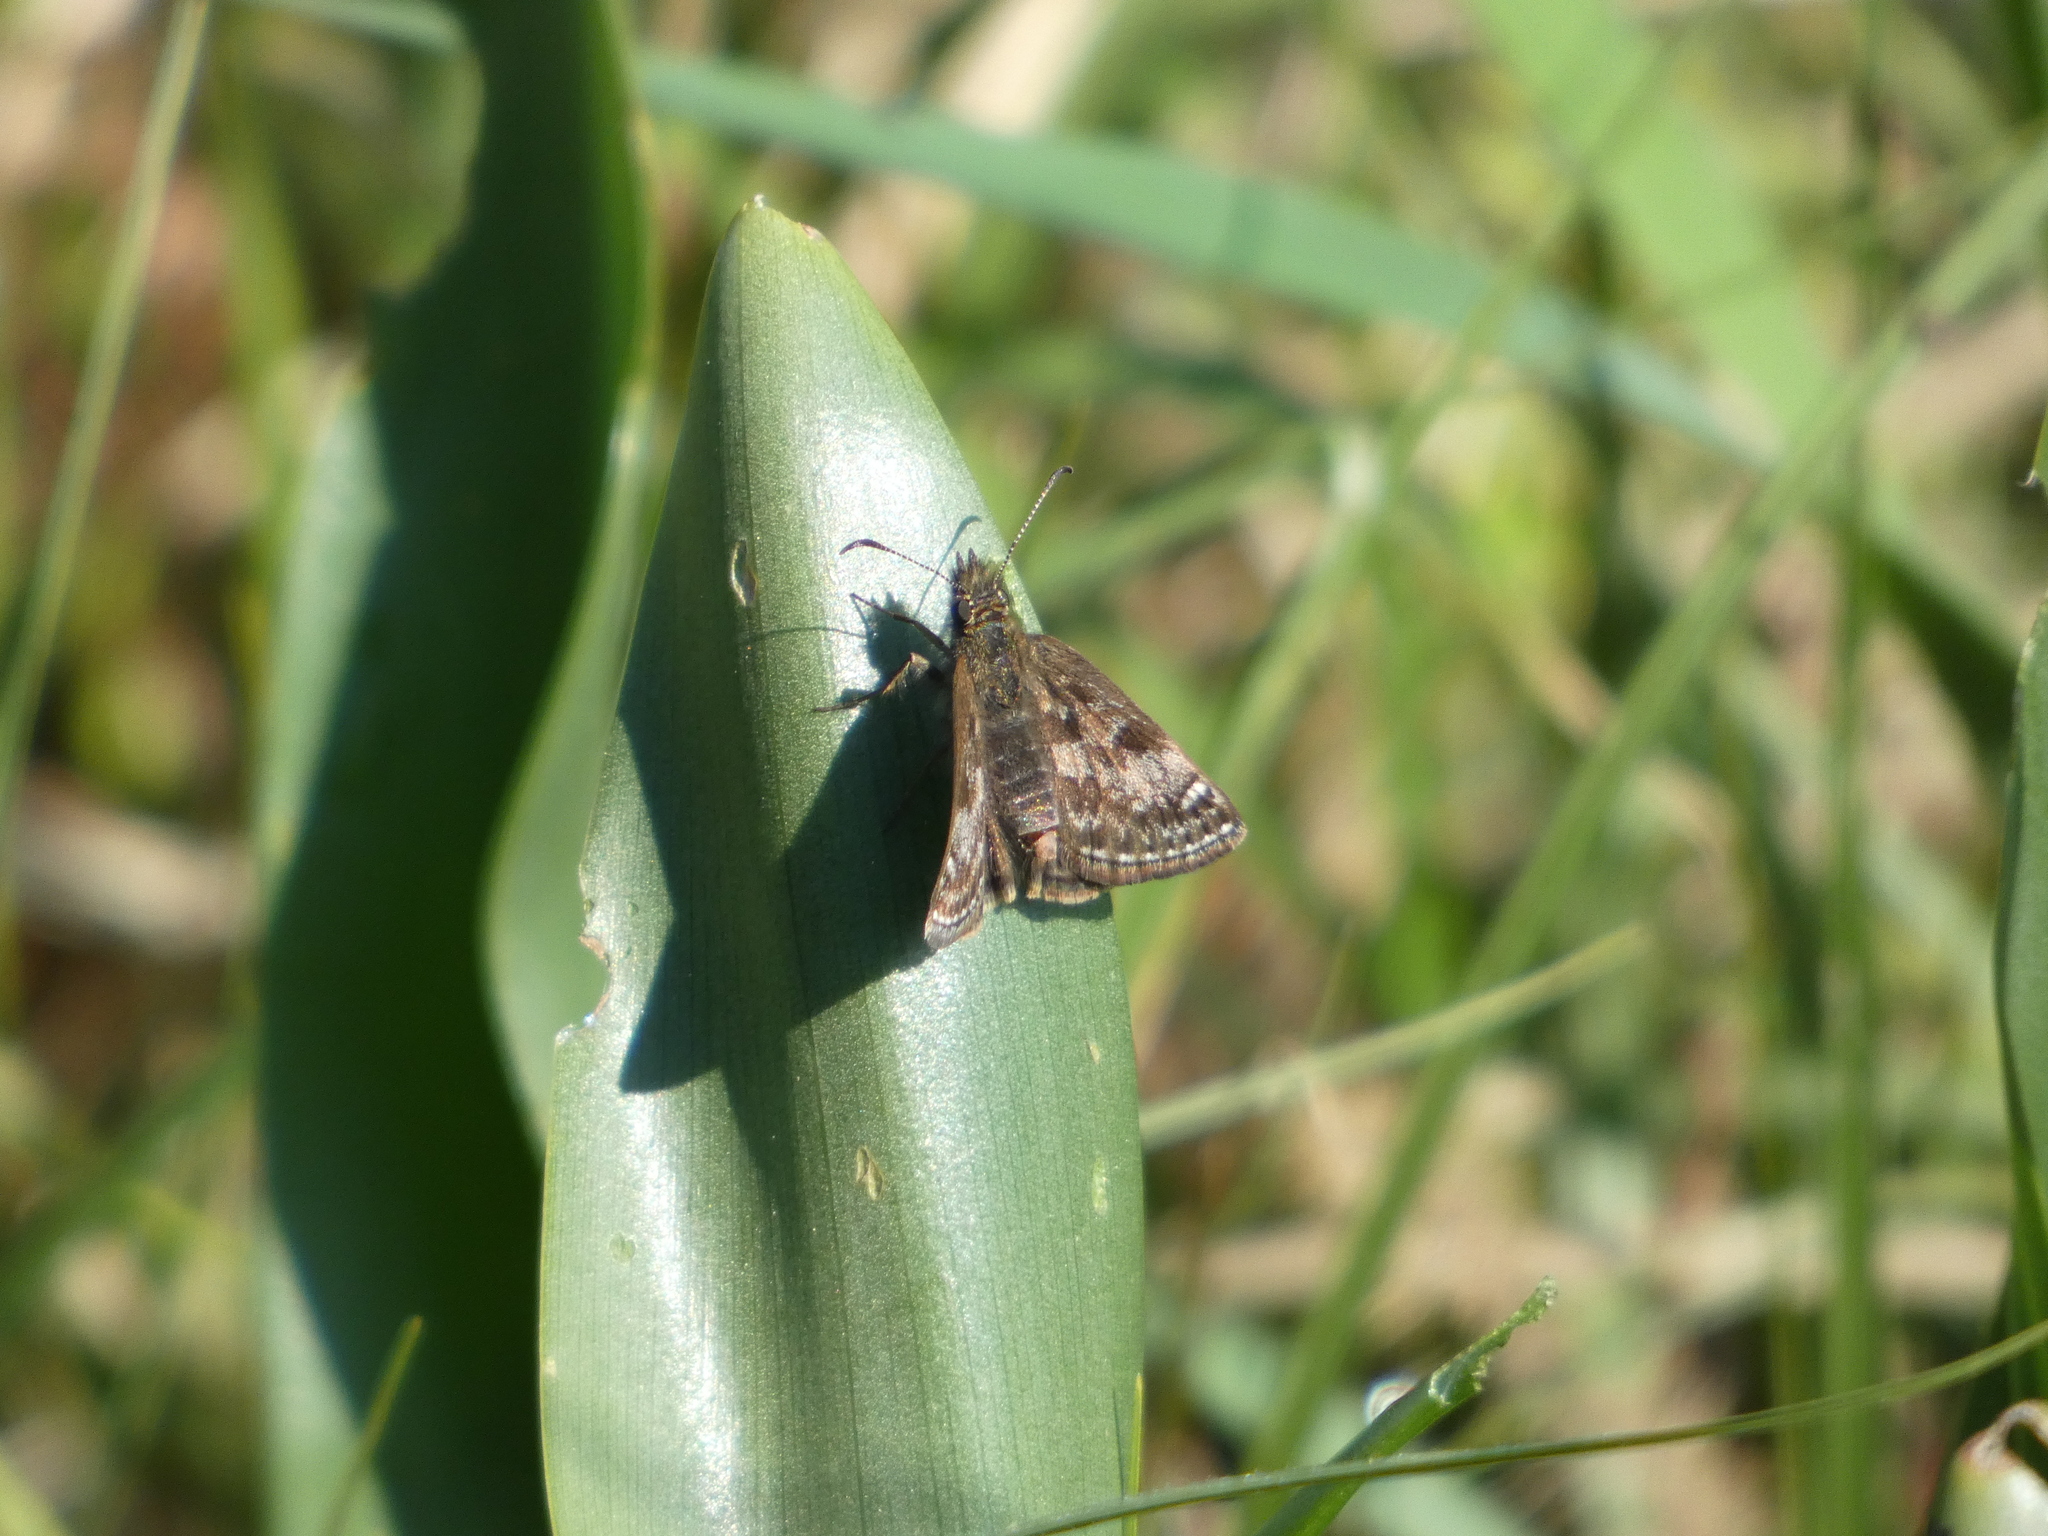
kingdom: Animalia
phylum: Arthropoda
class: Insecta
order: Lepidoptera
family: Hesperiidae
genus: Erynnis
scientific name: Erynnis tages
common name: Dingy skipper
